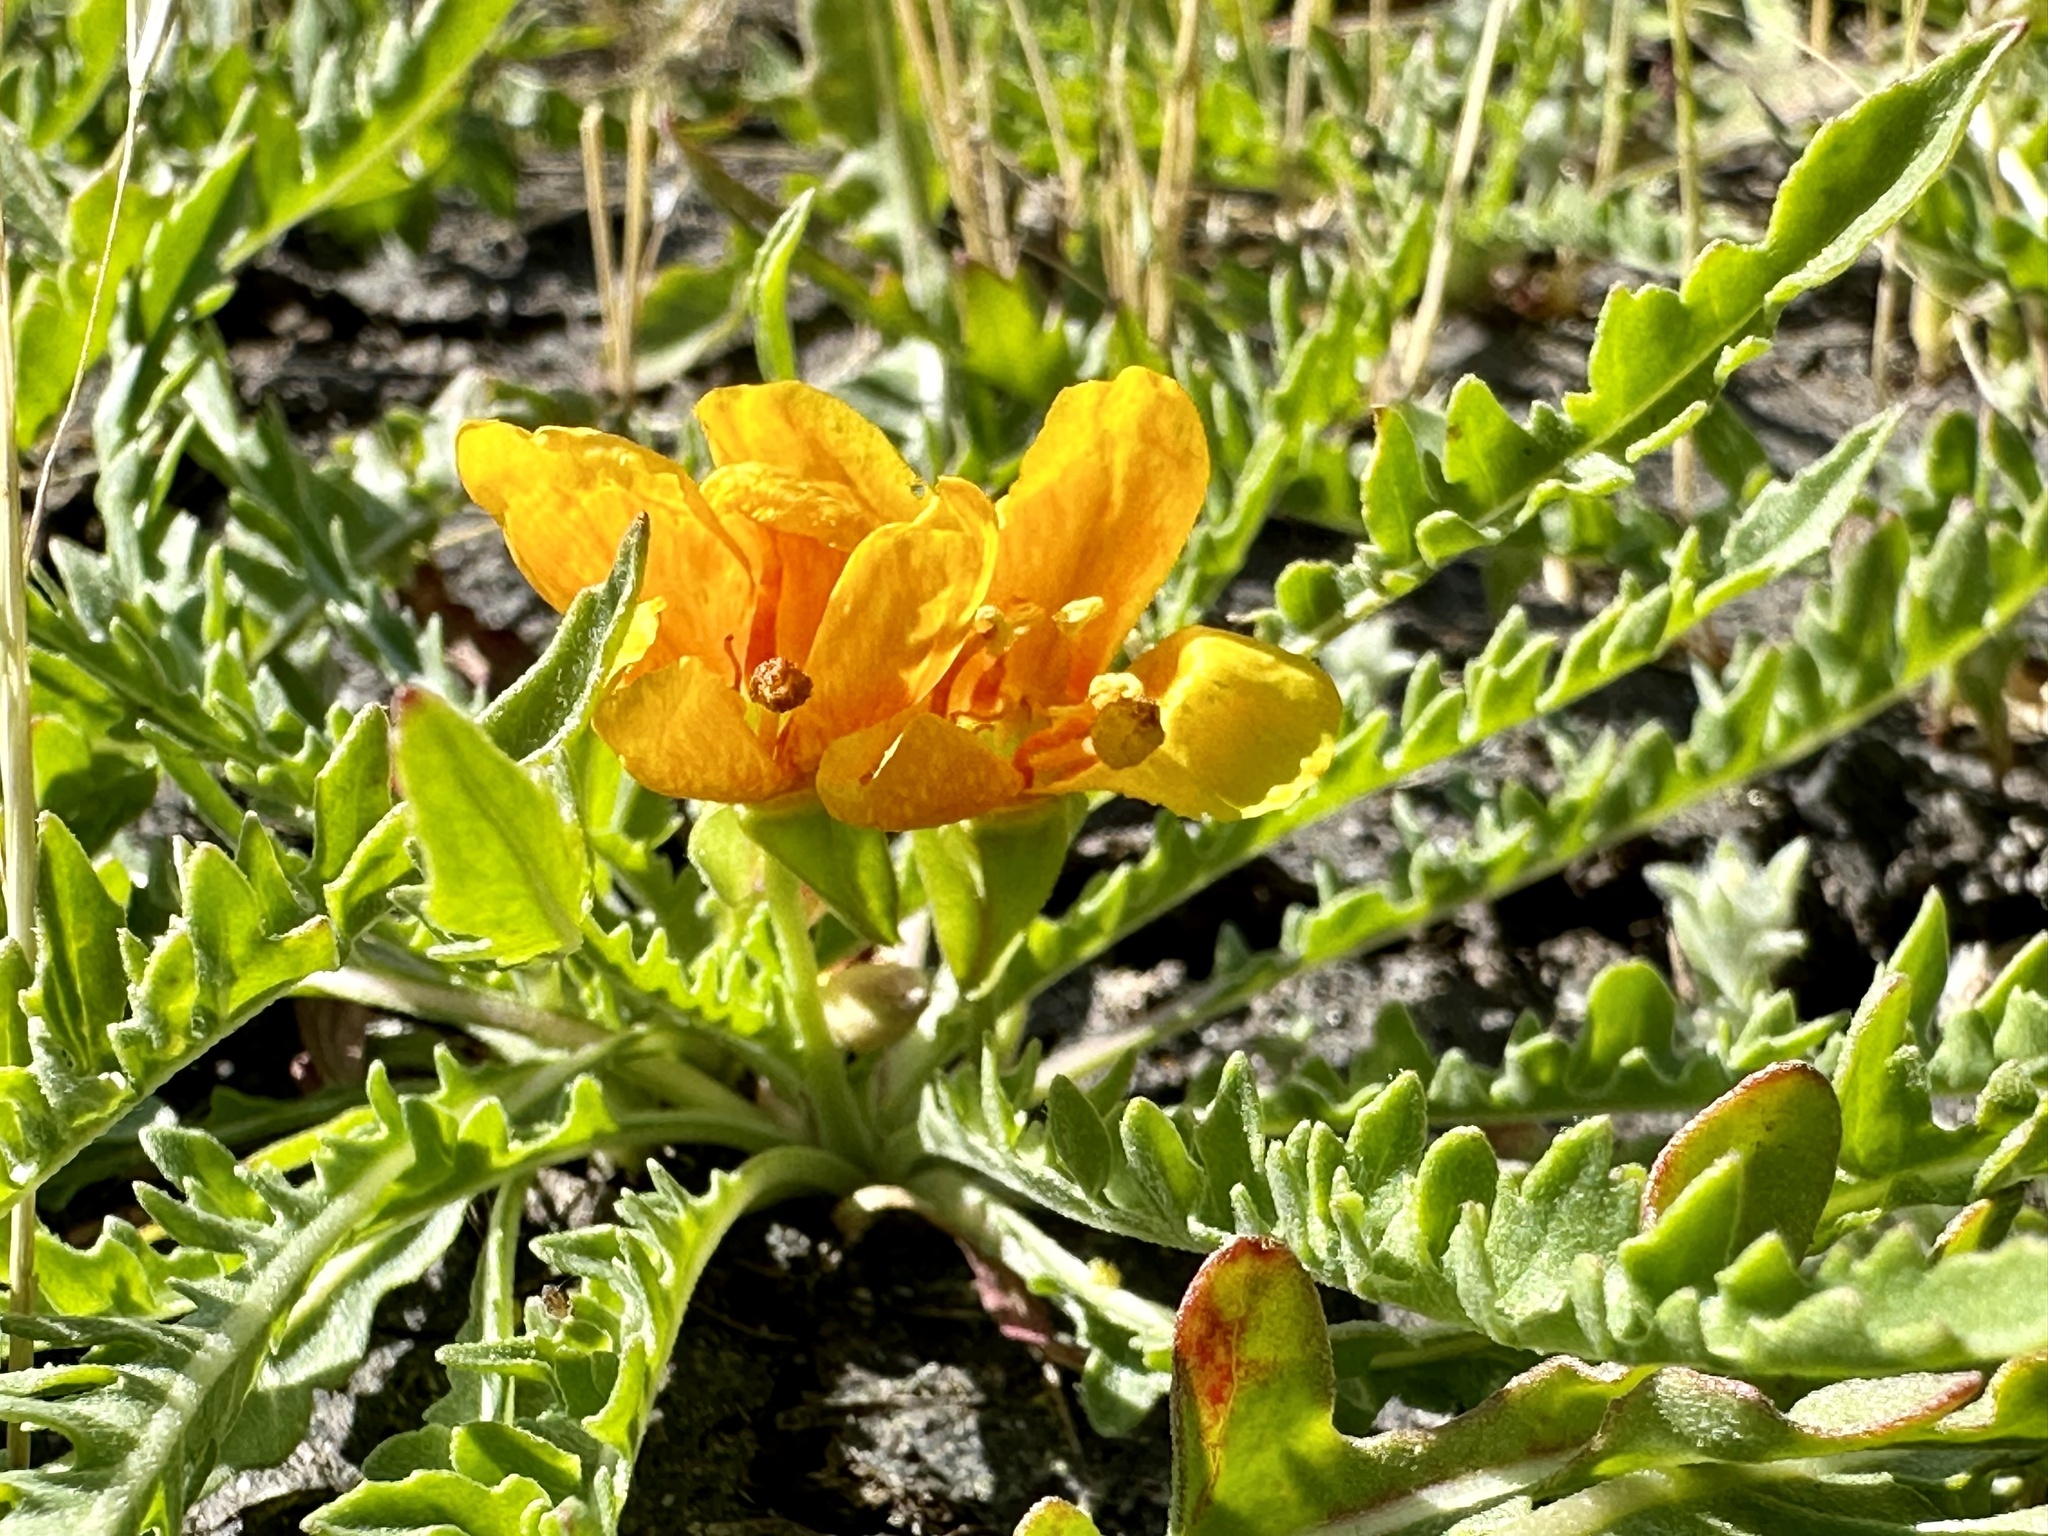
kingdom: Plantae
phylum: Tracheophyta
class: Magnoliopsida
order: Myrtales
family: Onagraceae
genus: Taraxia
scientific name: Taraxia tanacetifolia
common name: Tansyleaf evening primrose
